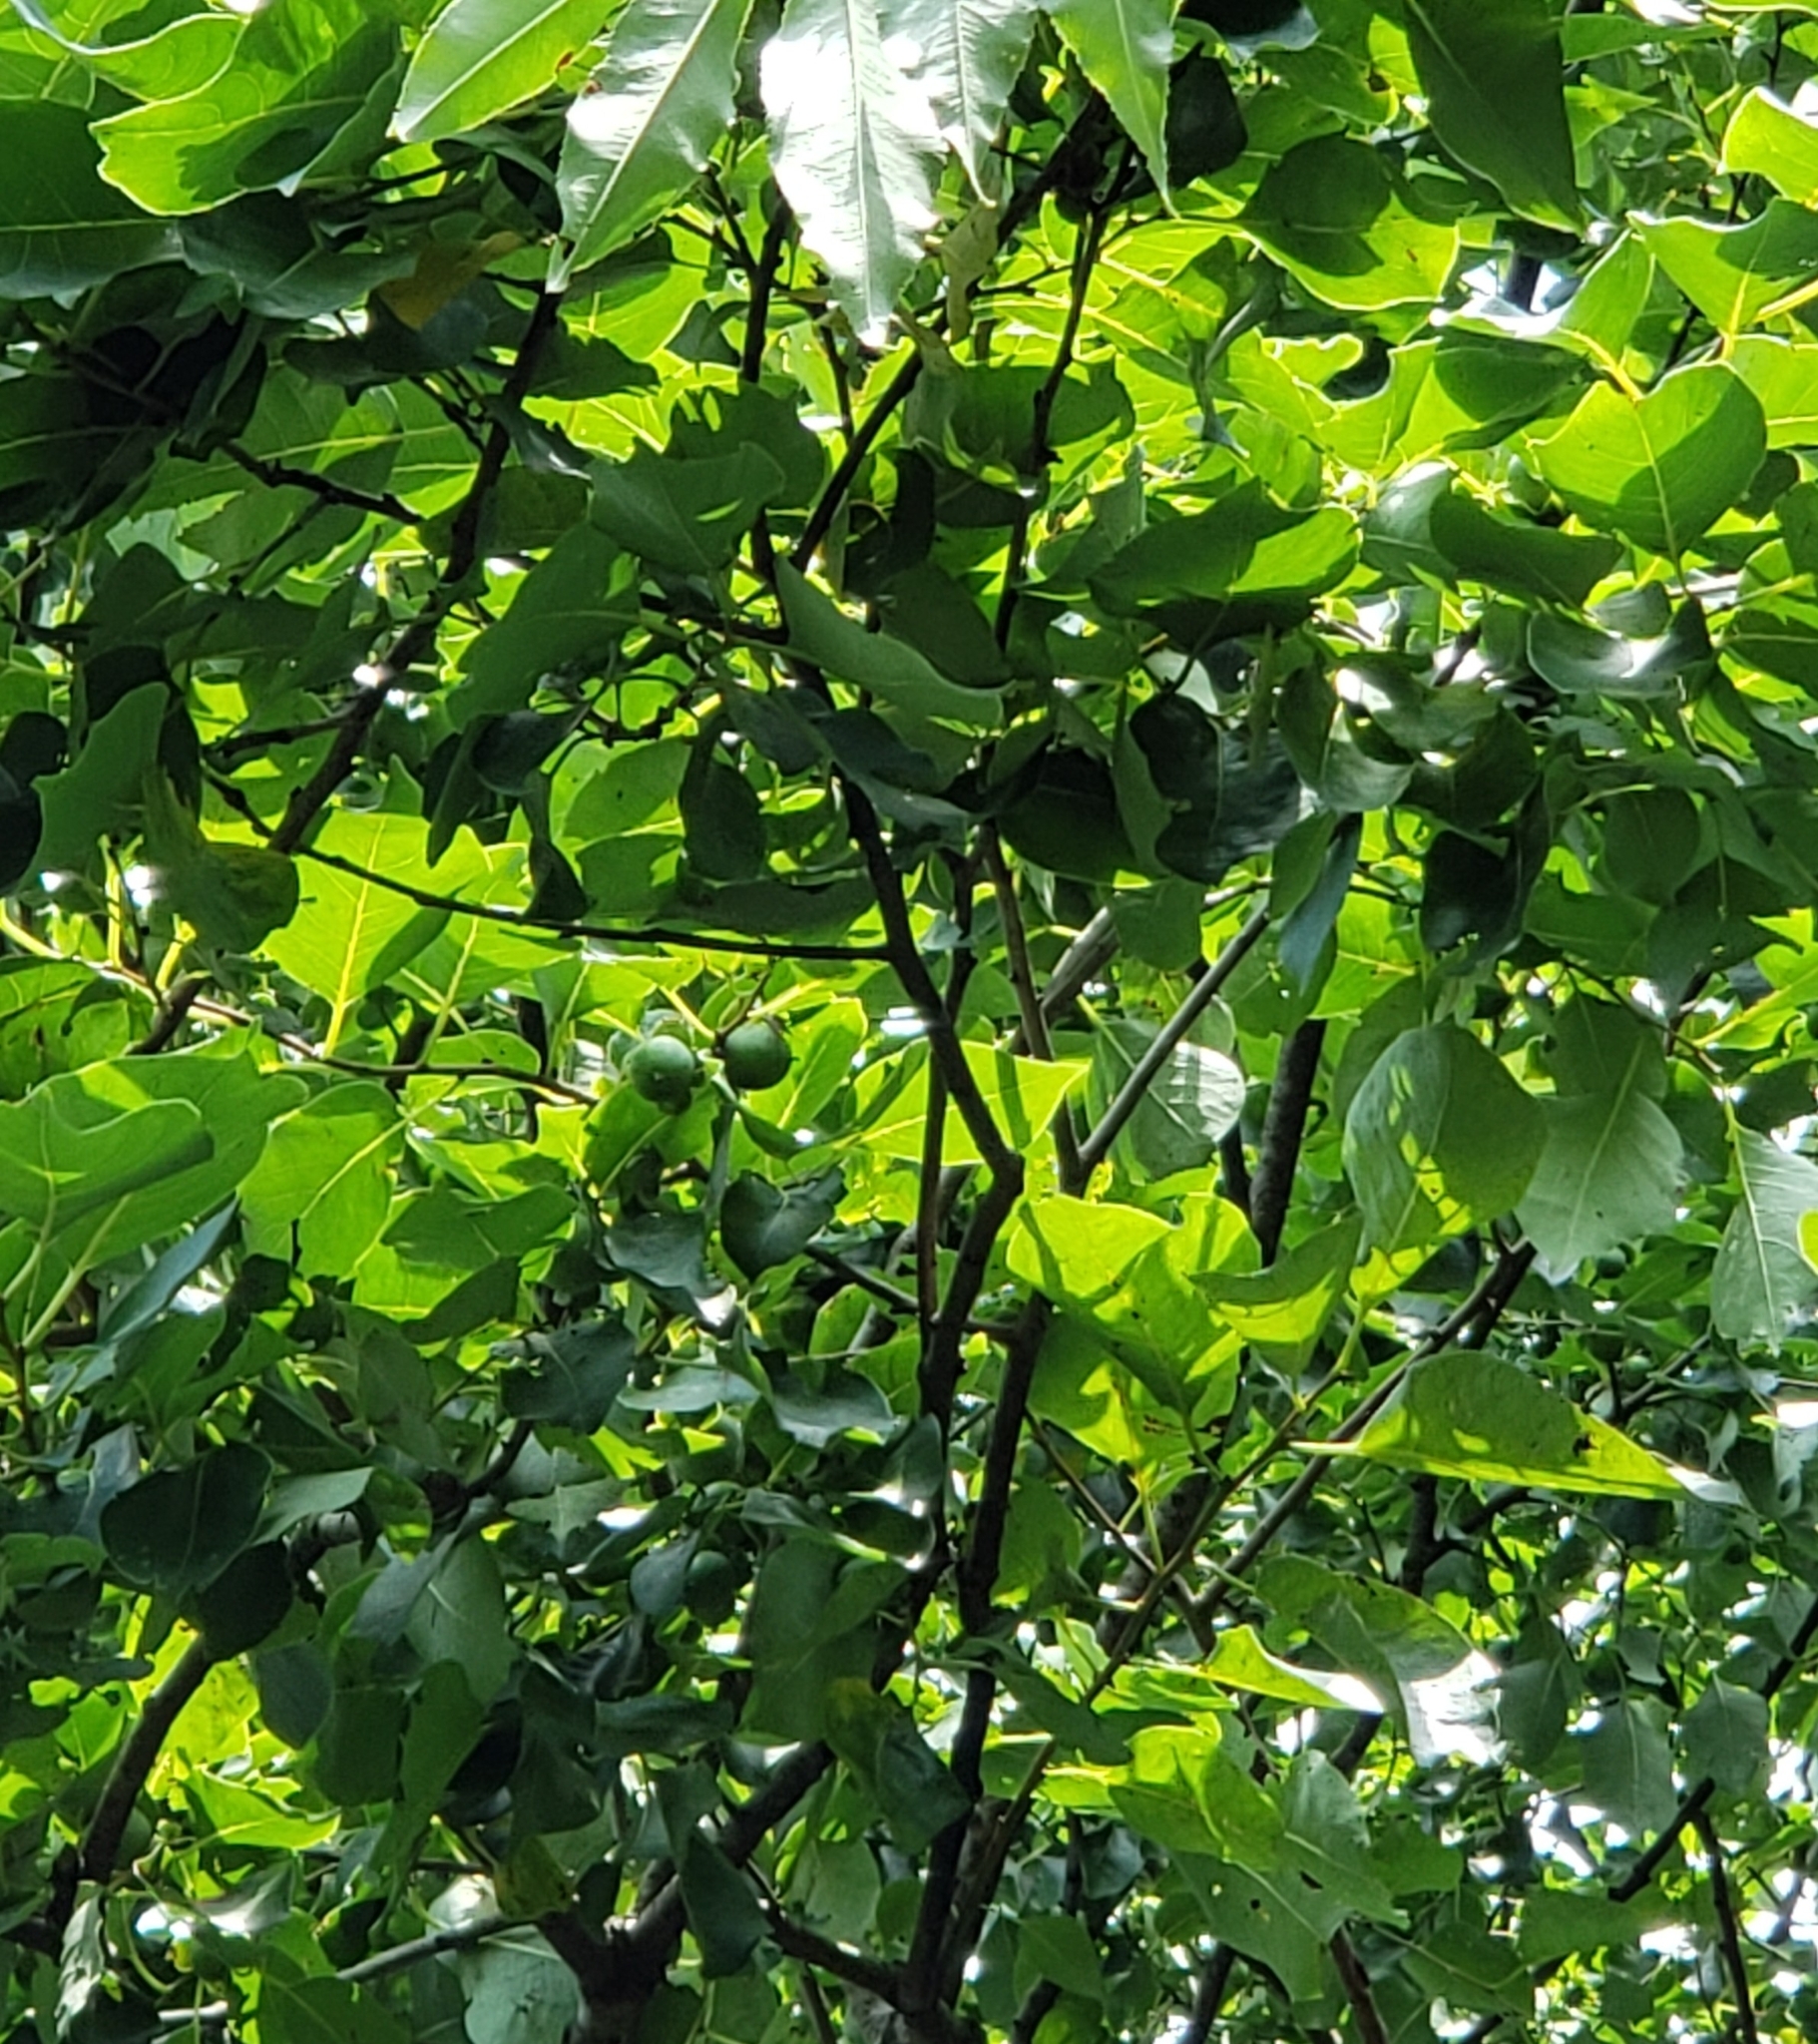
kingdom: Plantae
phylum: Tracheophyta
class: Magnoliopsida
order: Ericales
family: Ebenaceae
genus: Diospyros
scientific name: Diospyros virginiana
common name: Persimmon
